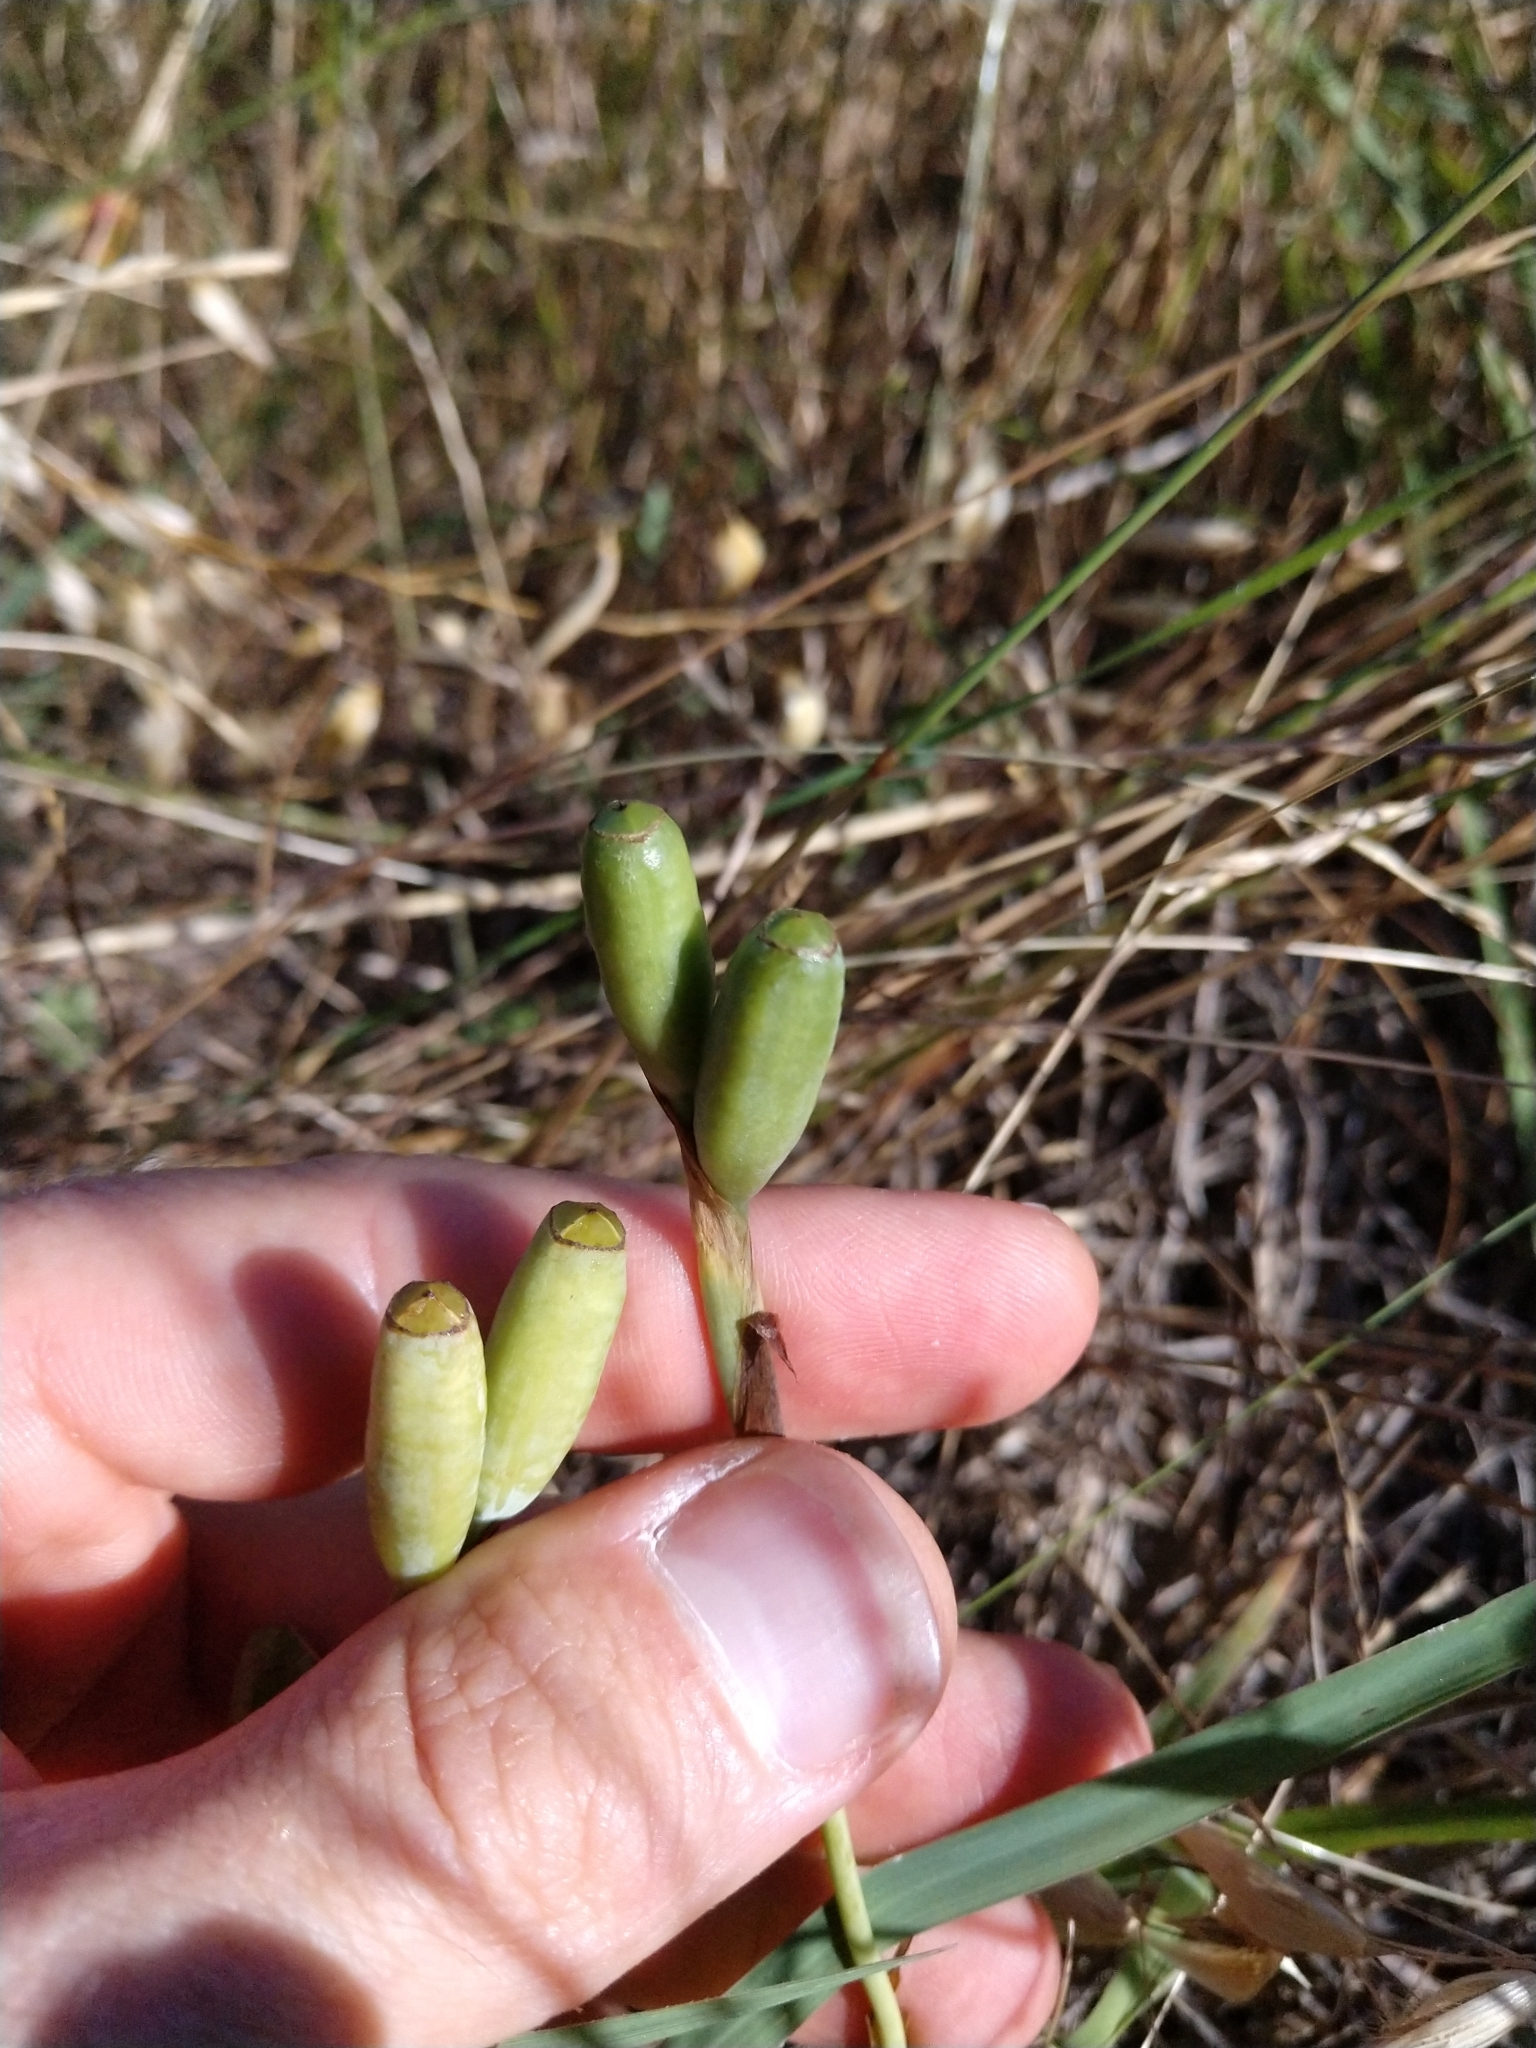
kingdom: Plantae
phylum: Tracheophyta
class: Liliopsida
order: Asparagales
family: Iridaceae
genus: Herbertia
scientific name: Herbertia lahue
